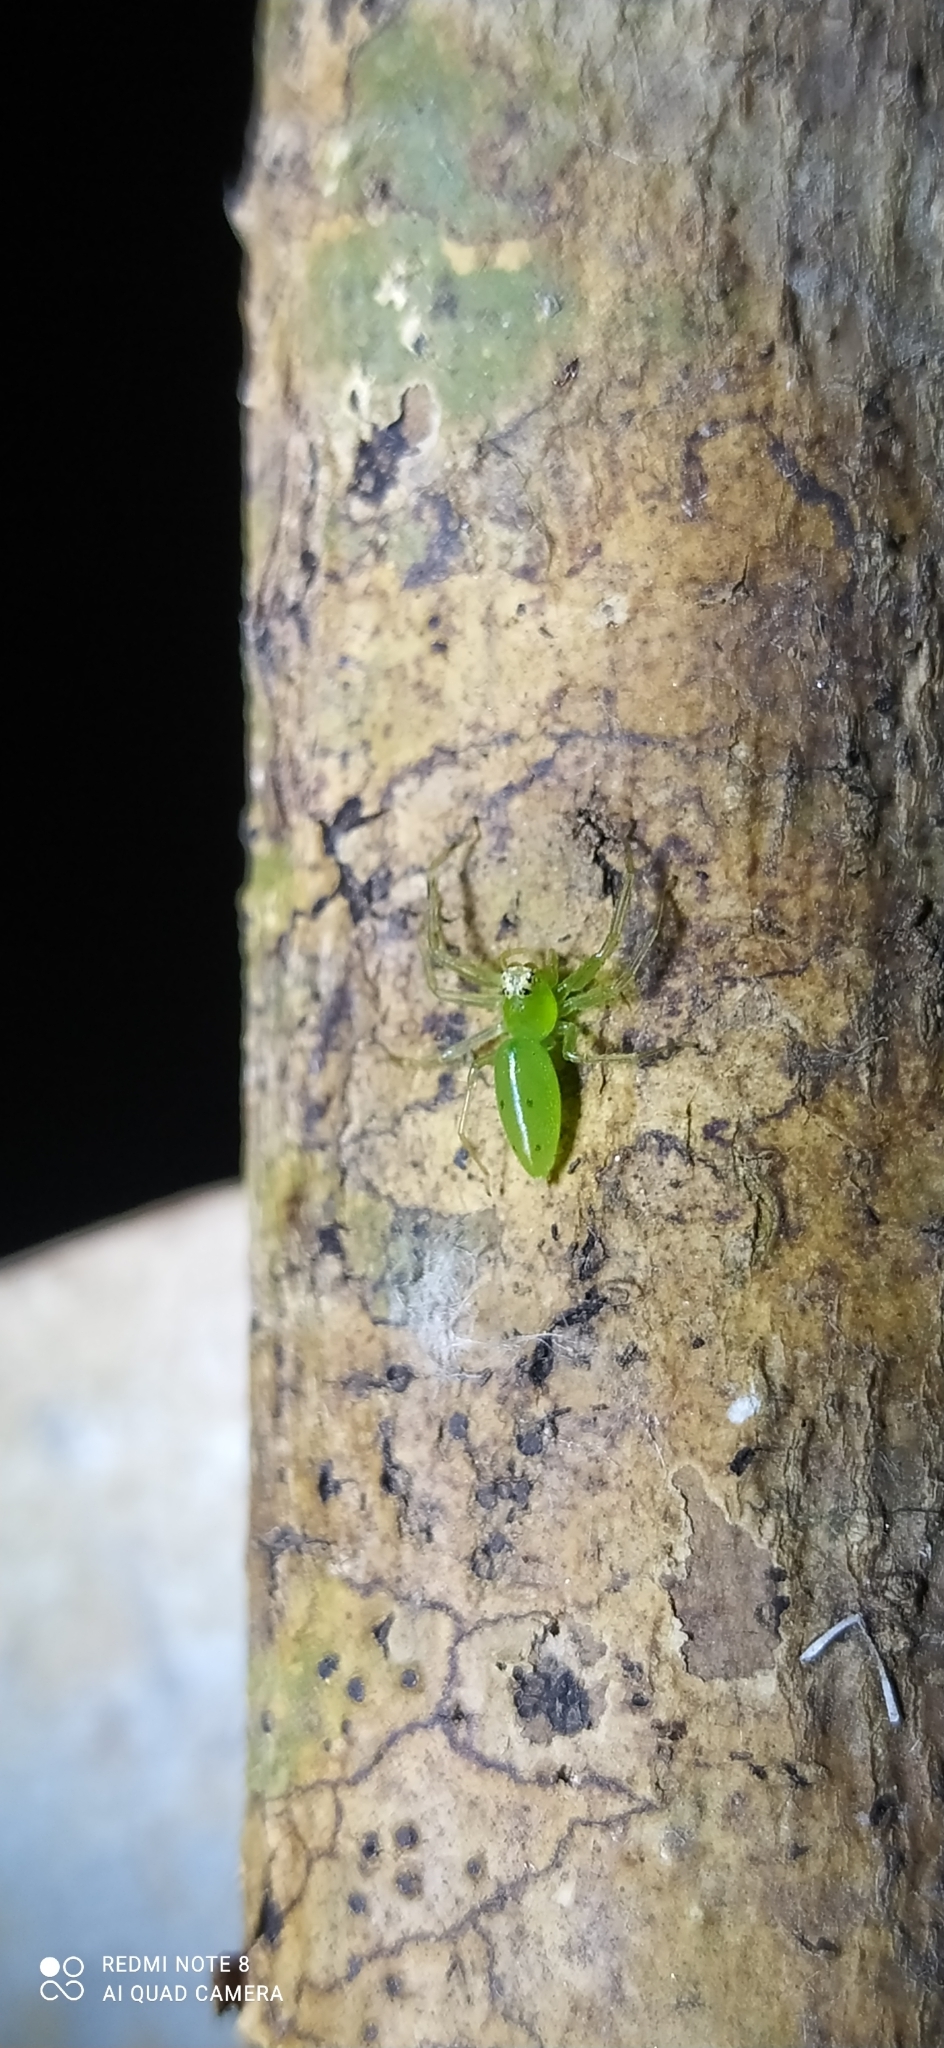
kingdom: Animalia
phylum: Arthropoda
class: Arachnida
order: Araneae
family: Salticidae
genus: Lyssomanes
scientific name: Lyssomanes pauper
